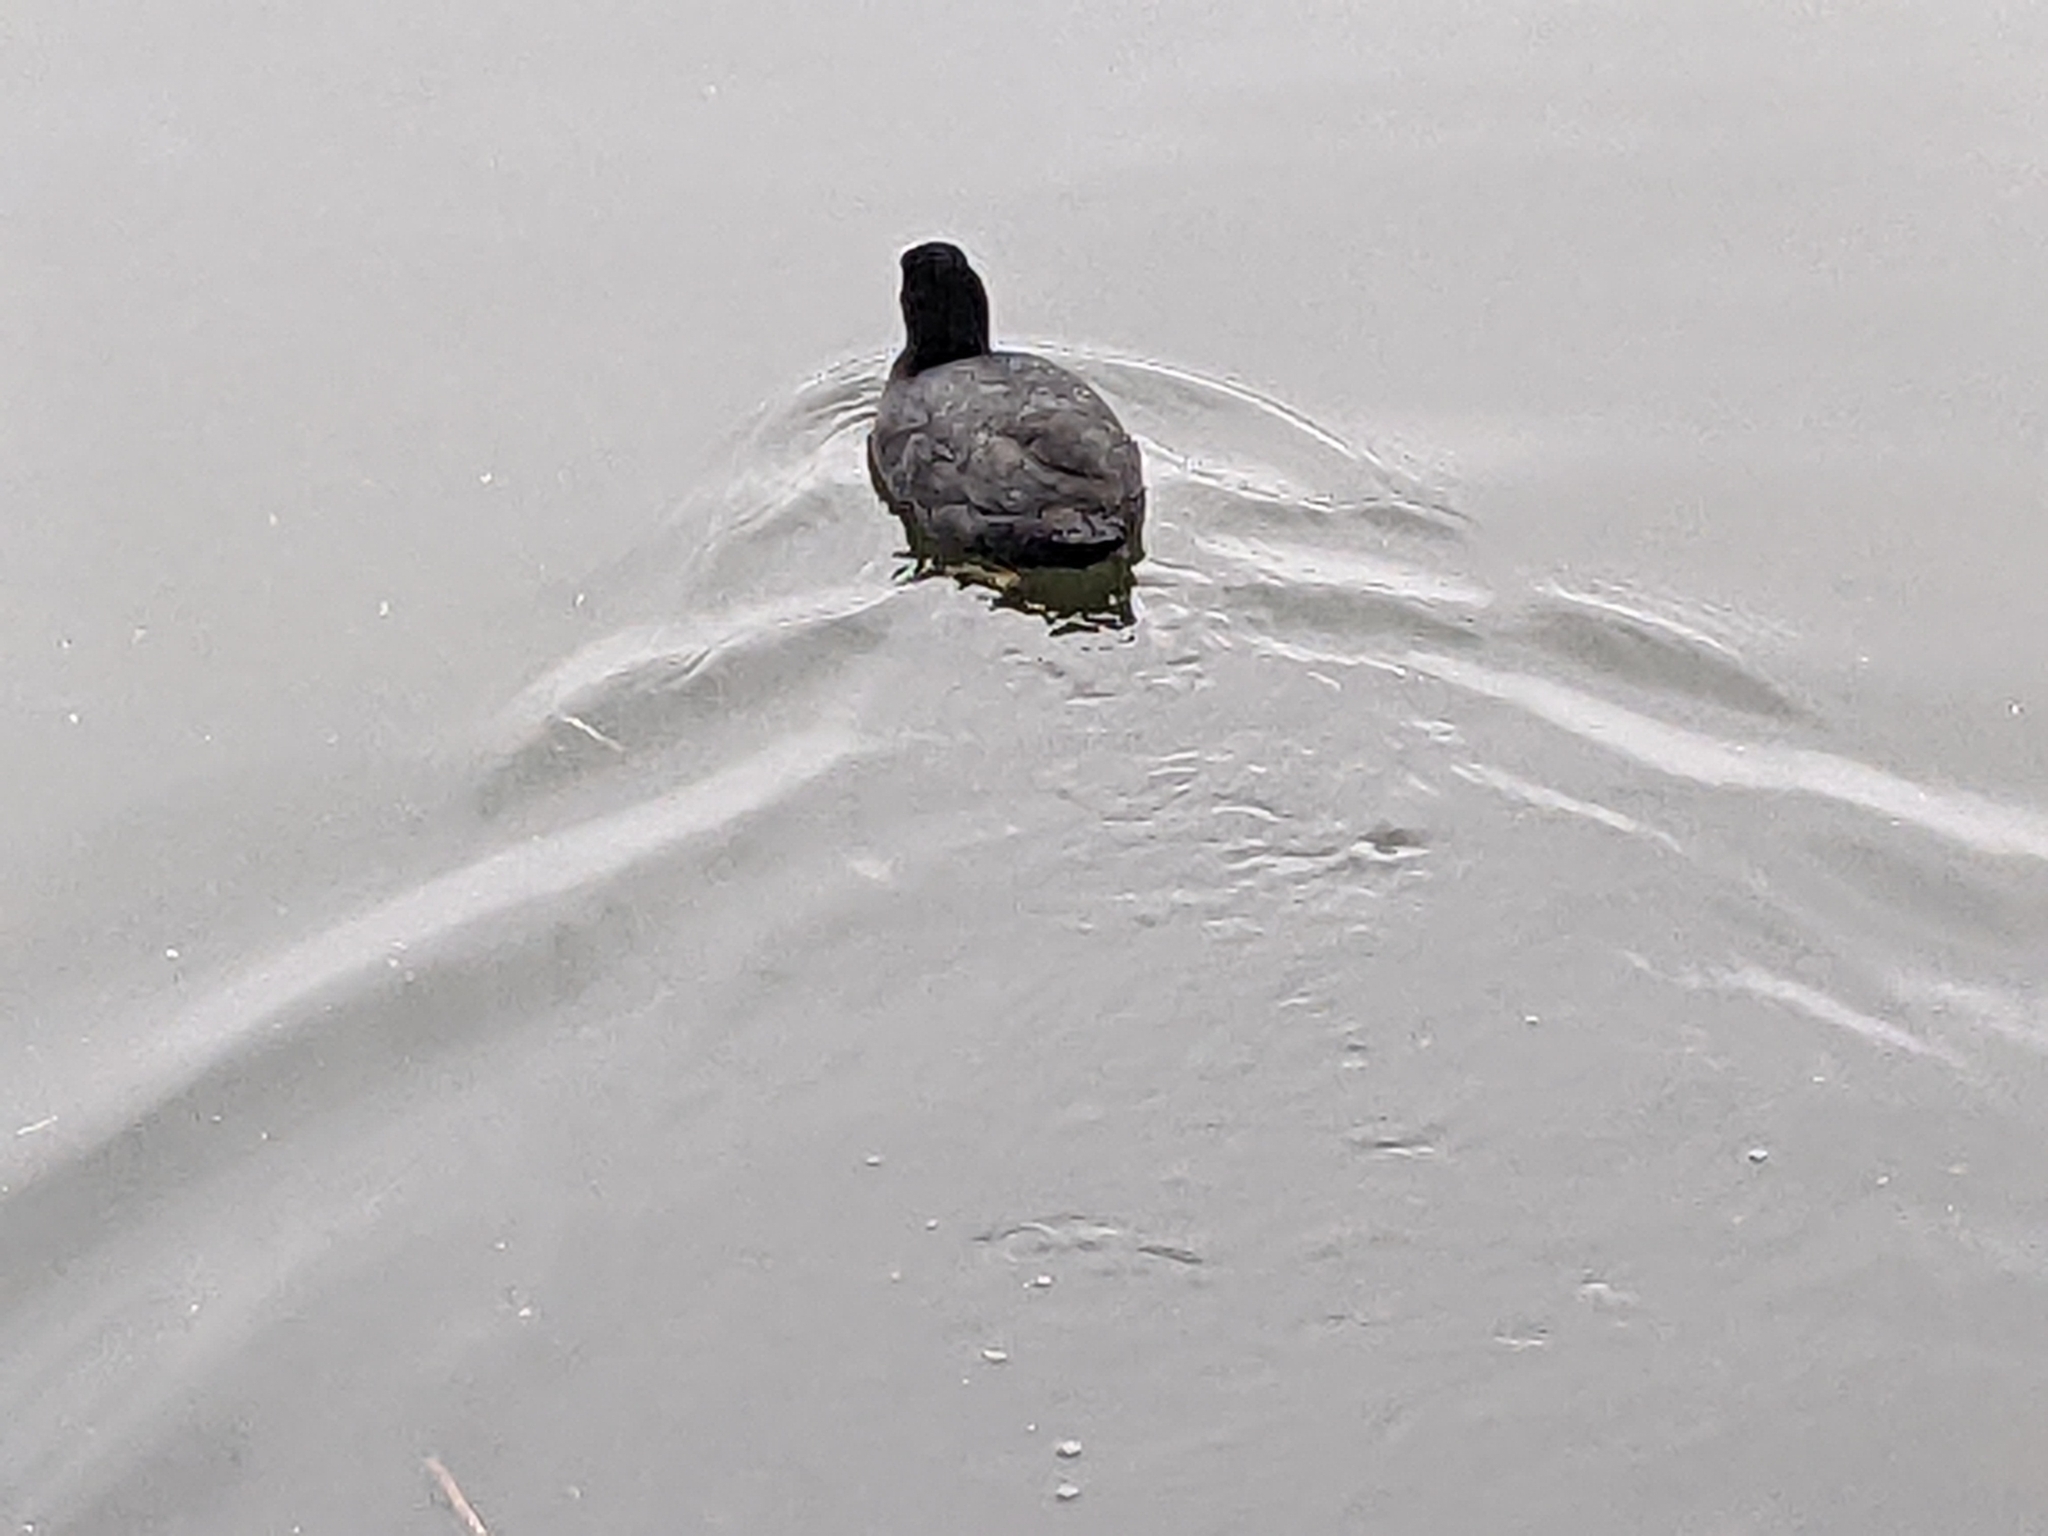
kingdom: Animalia
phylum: Chordata
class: Aves
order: Gruiformes
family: Rallidae
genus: Fulica
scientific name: Fulica atra
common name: Eurasian coot
